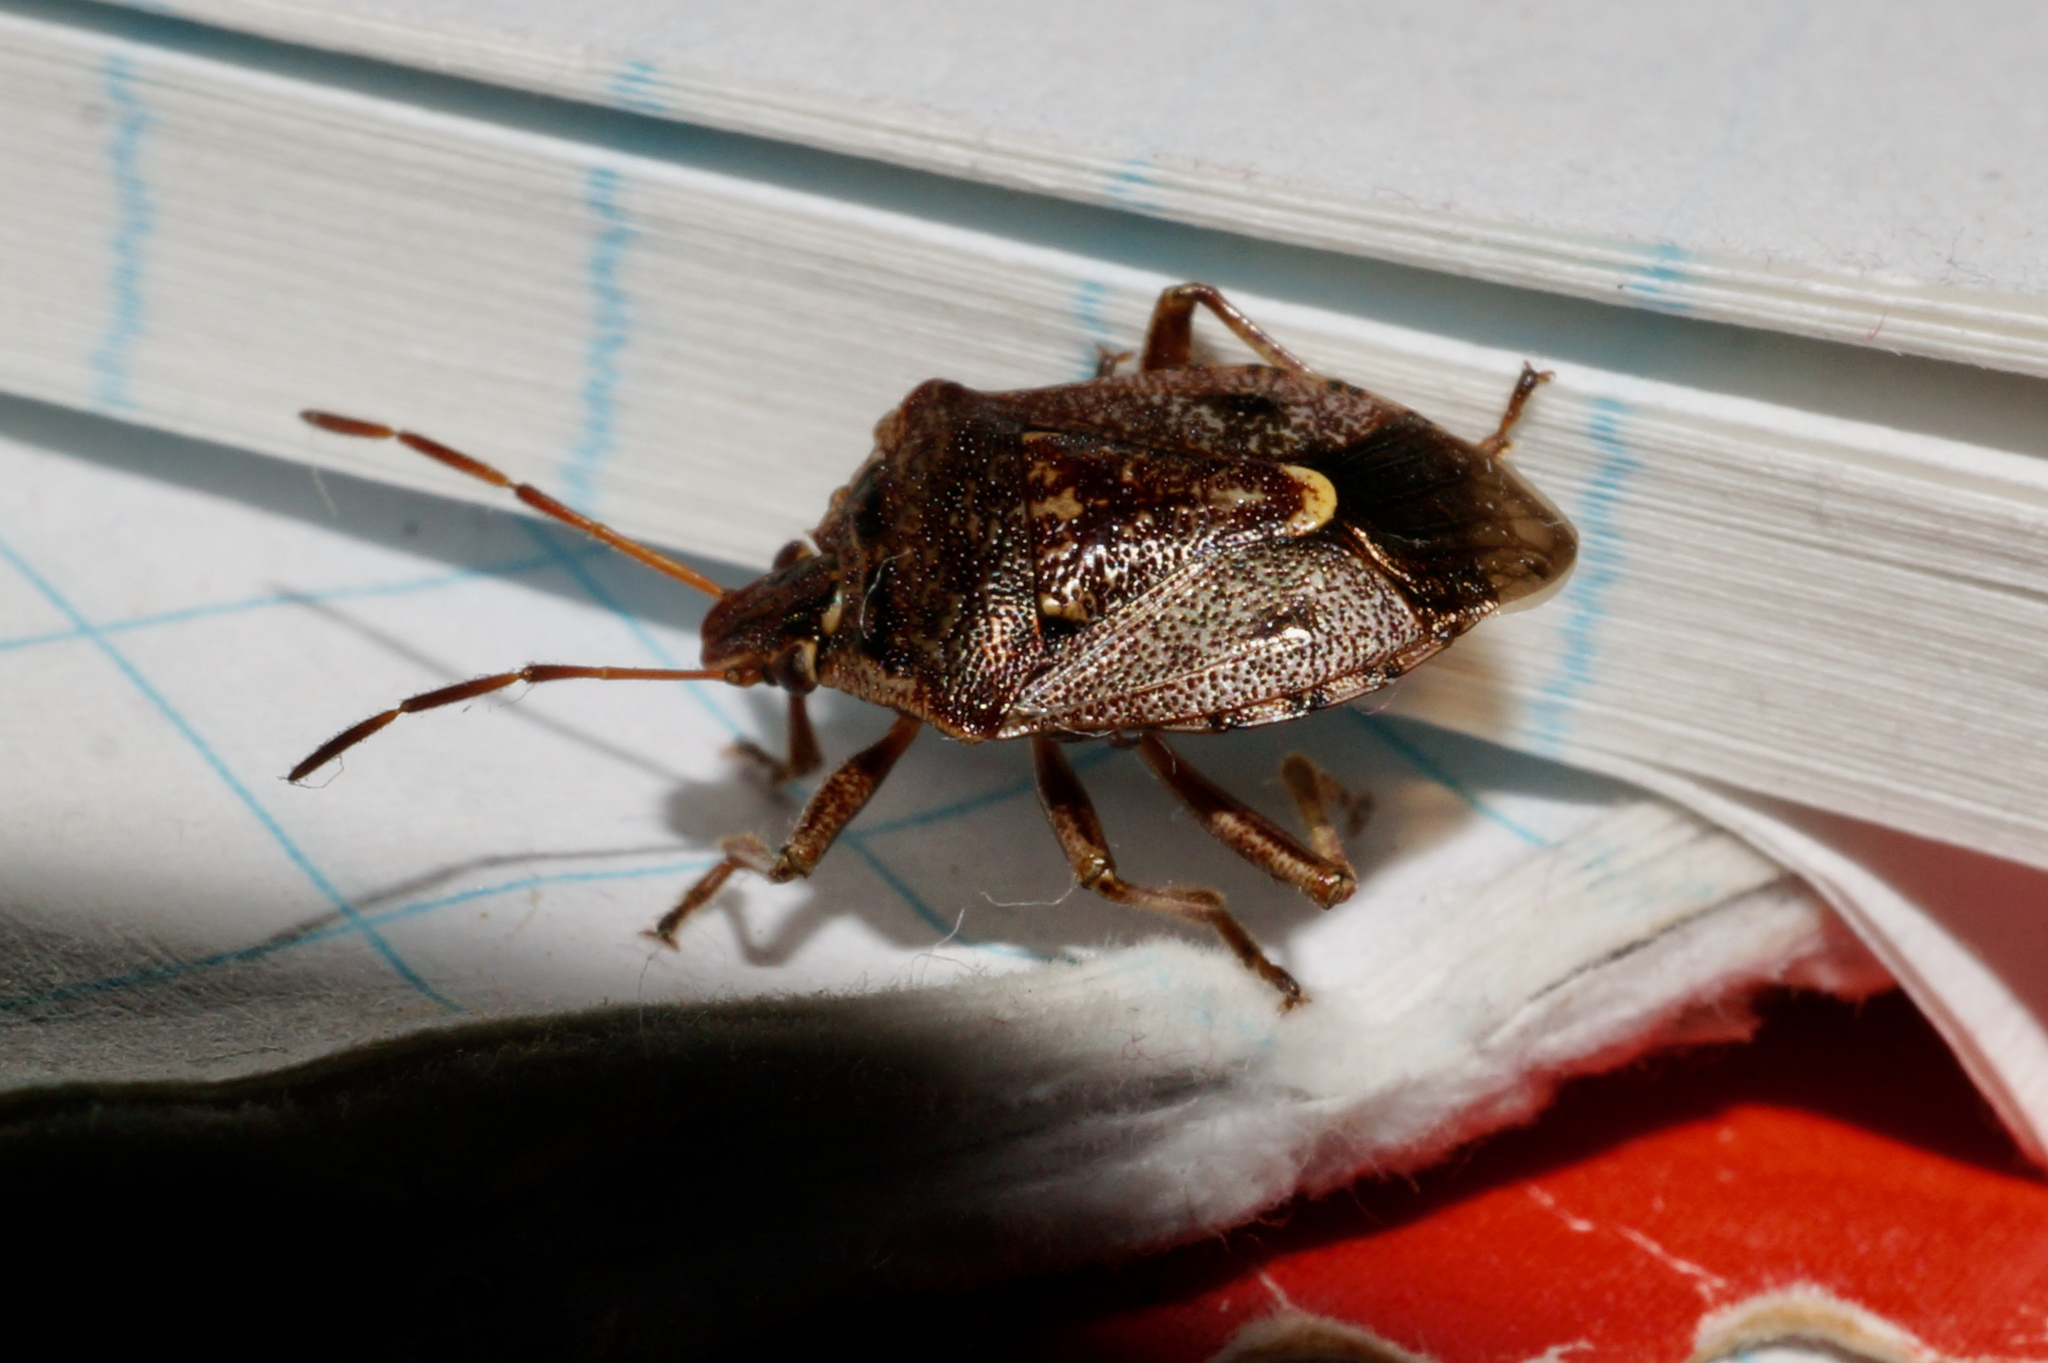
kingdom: Animalia
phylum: Arthropoda
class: Insecta
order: Hemiptera
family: Pentatomidae
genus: Cermatulus
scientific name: Cermatulus nasalis
